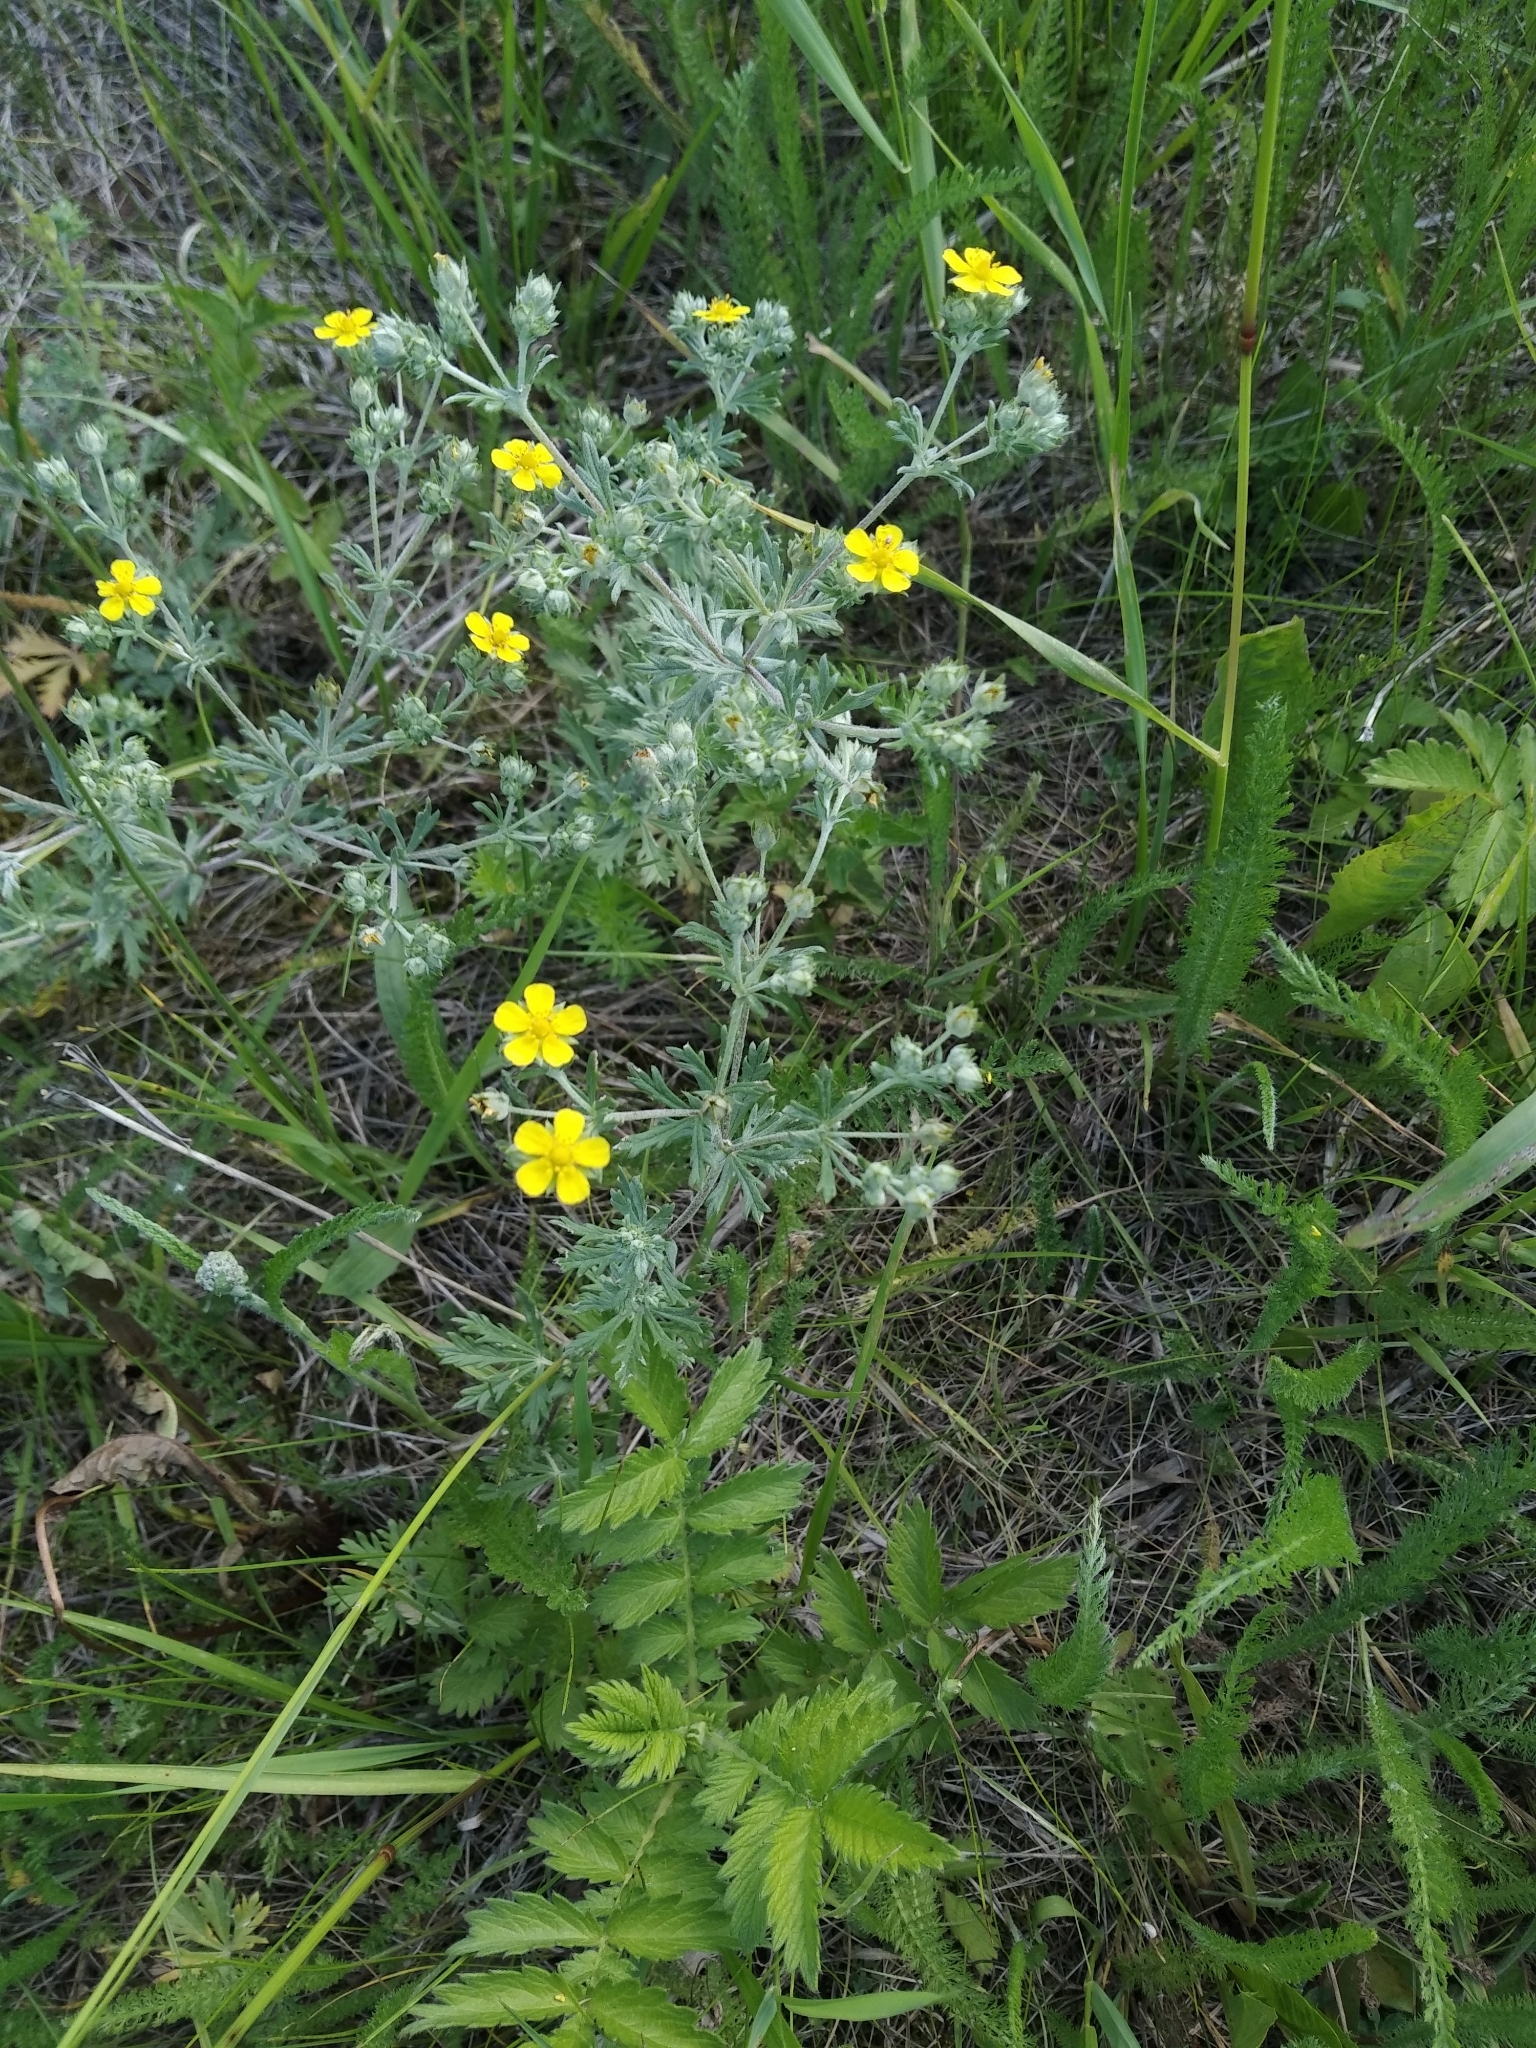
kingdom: Plantae
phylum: Tracheophyta
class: Magnoliopsida
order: Rosales
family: Rosaceae
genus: Potentilla
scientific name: Potentilla argentea
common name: Hoary cinquefoil
